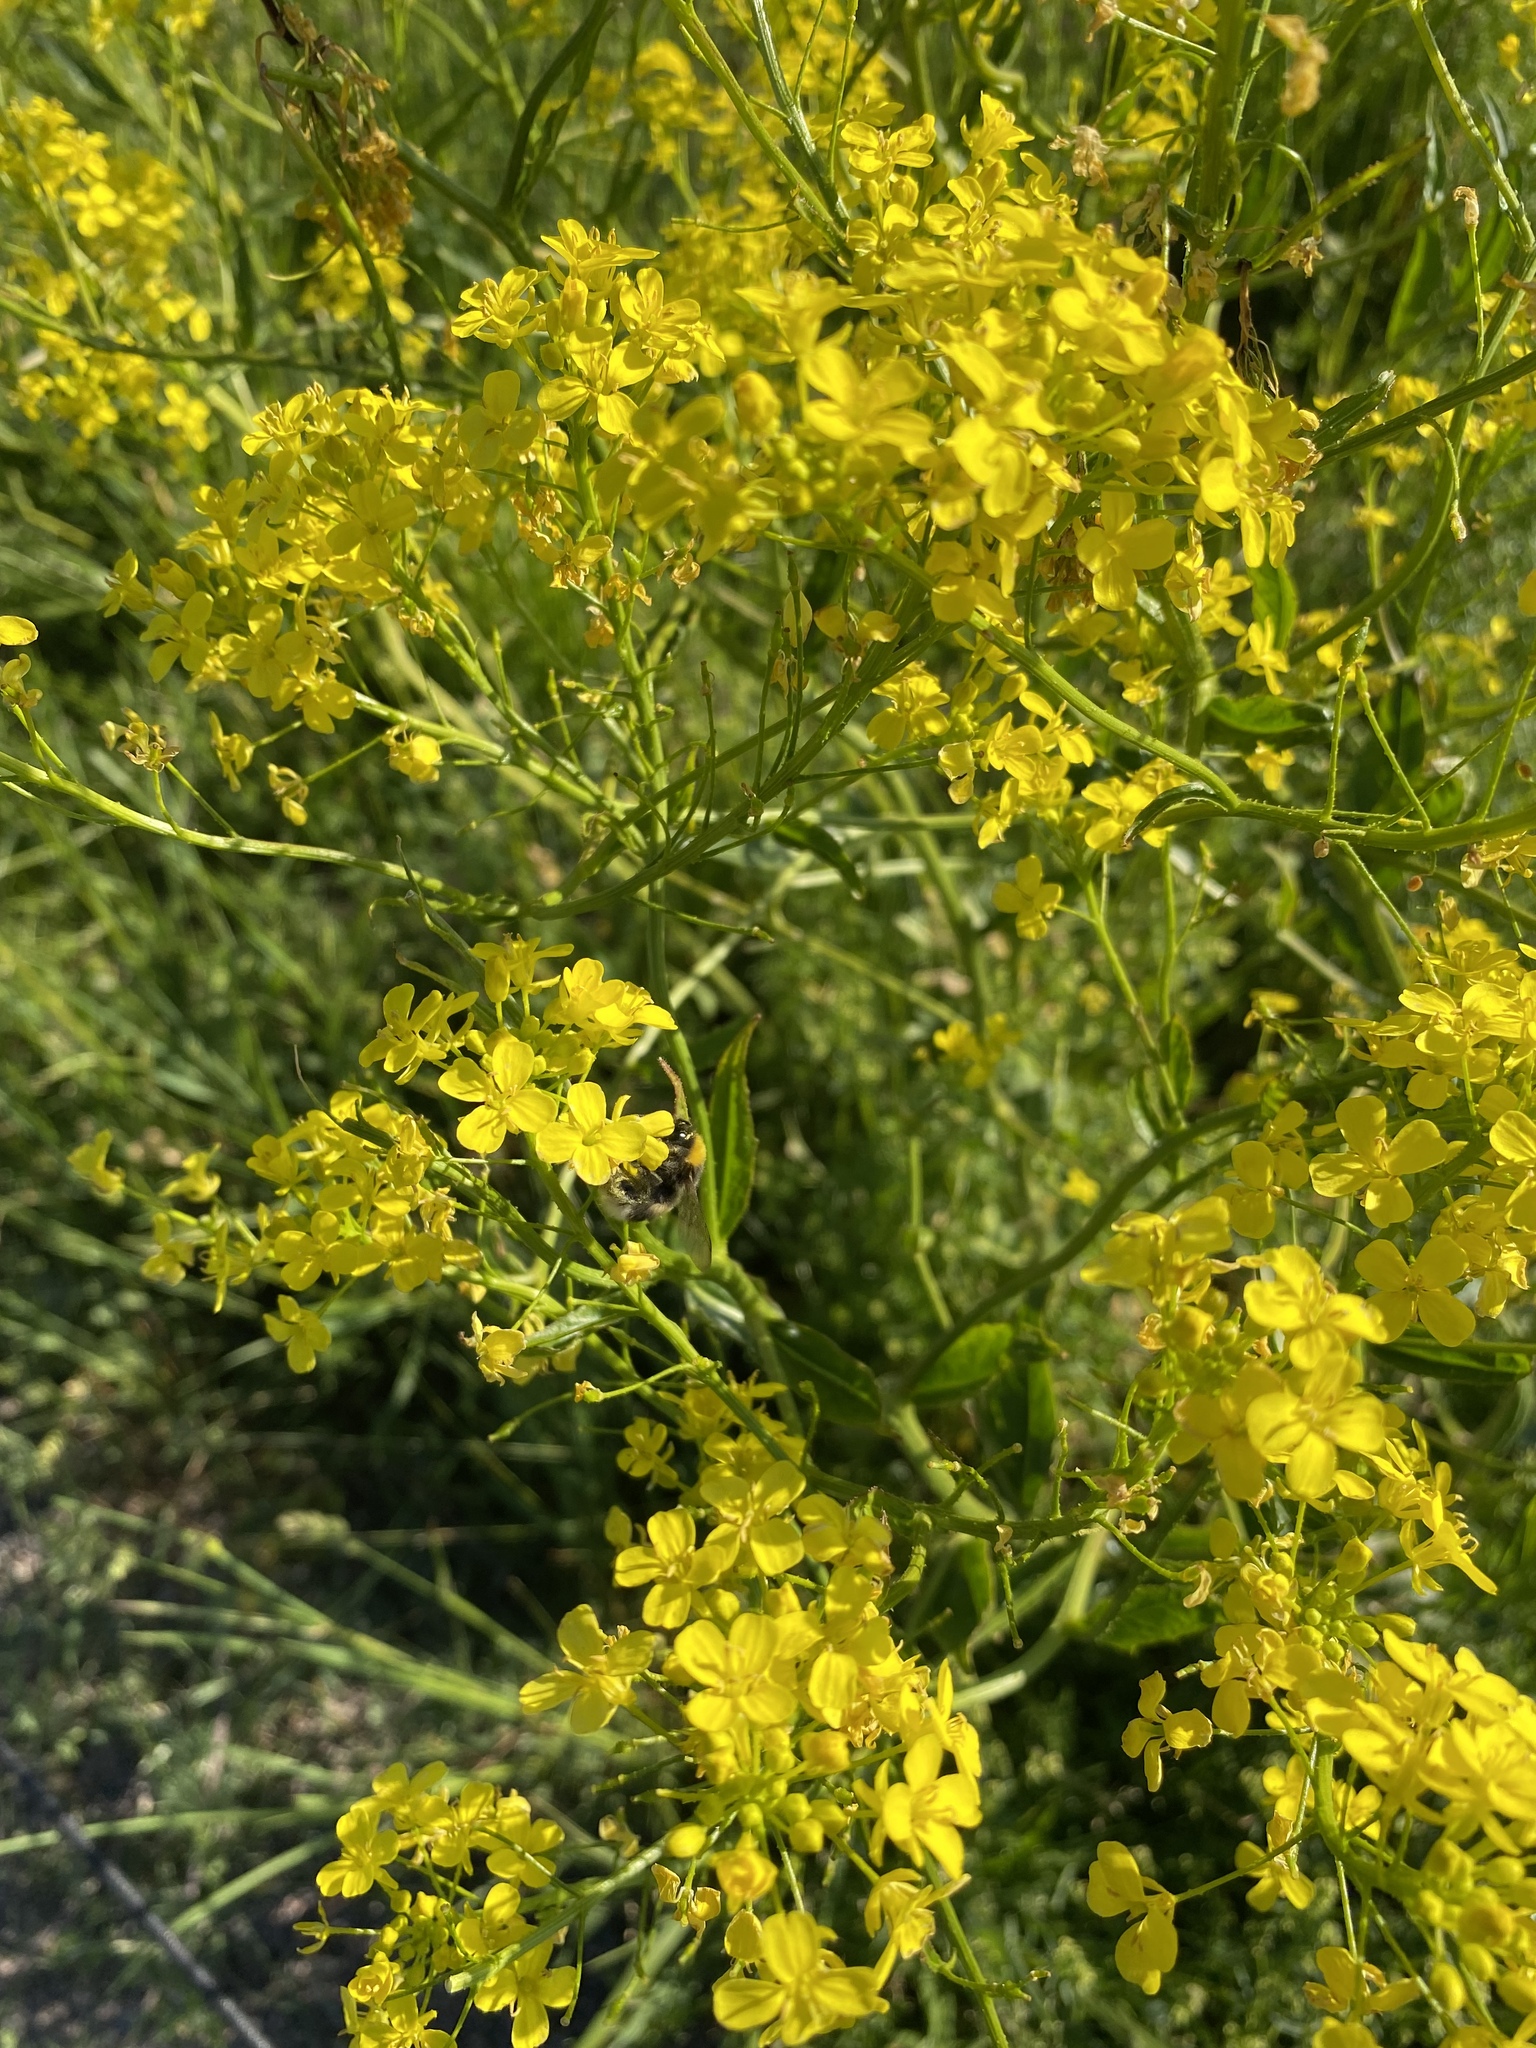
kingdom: Plantae
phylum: Tracheophyta
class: Magnoliopsida
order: Brassicales
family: Brassicaceae
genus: Bunias
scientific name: Bunias orientalis
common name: Warty-cabbage
